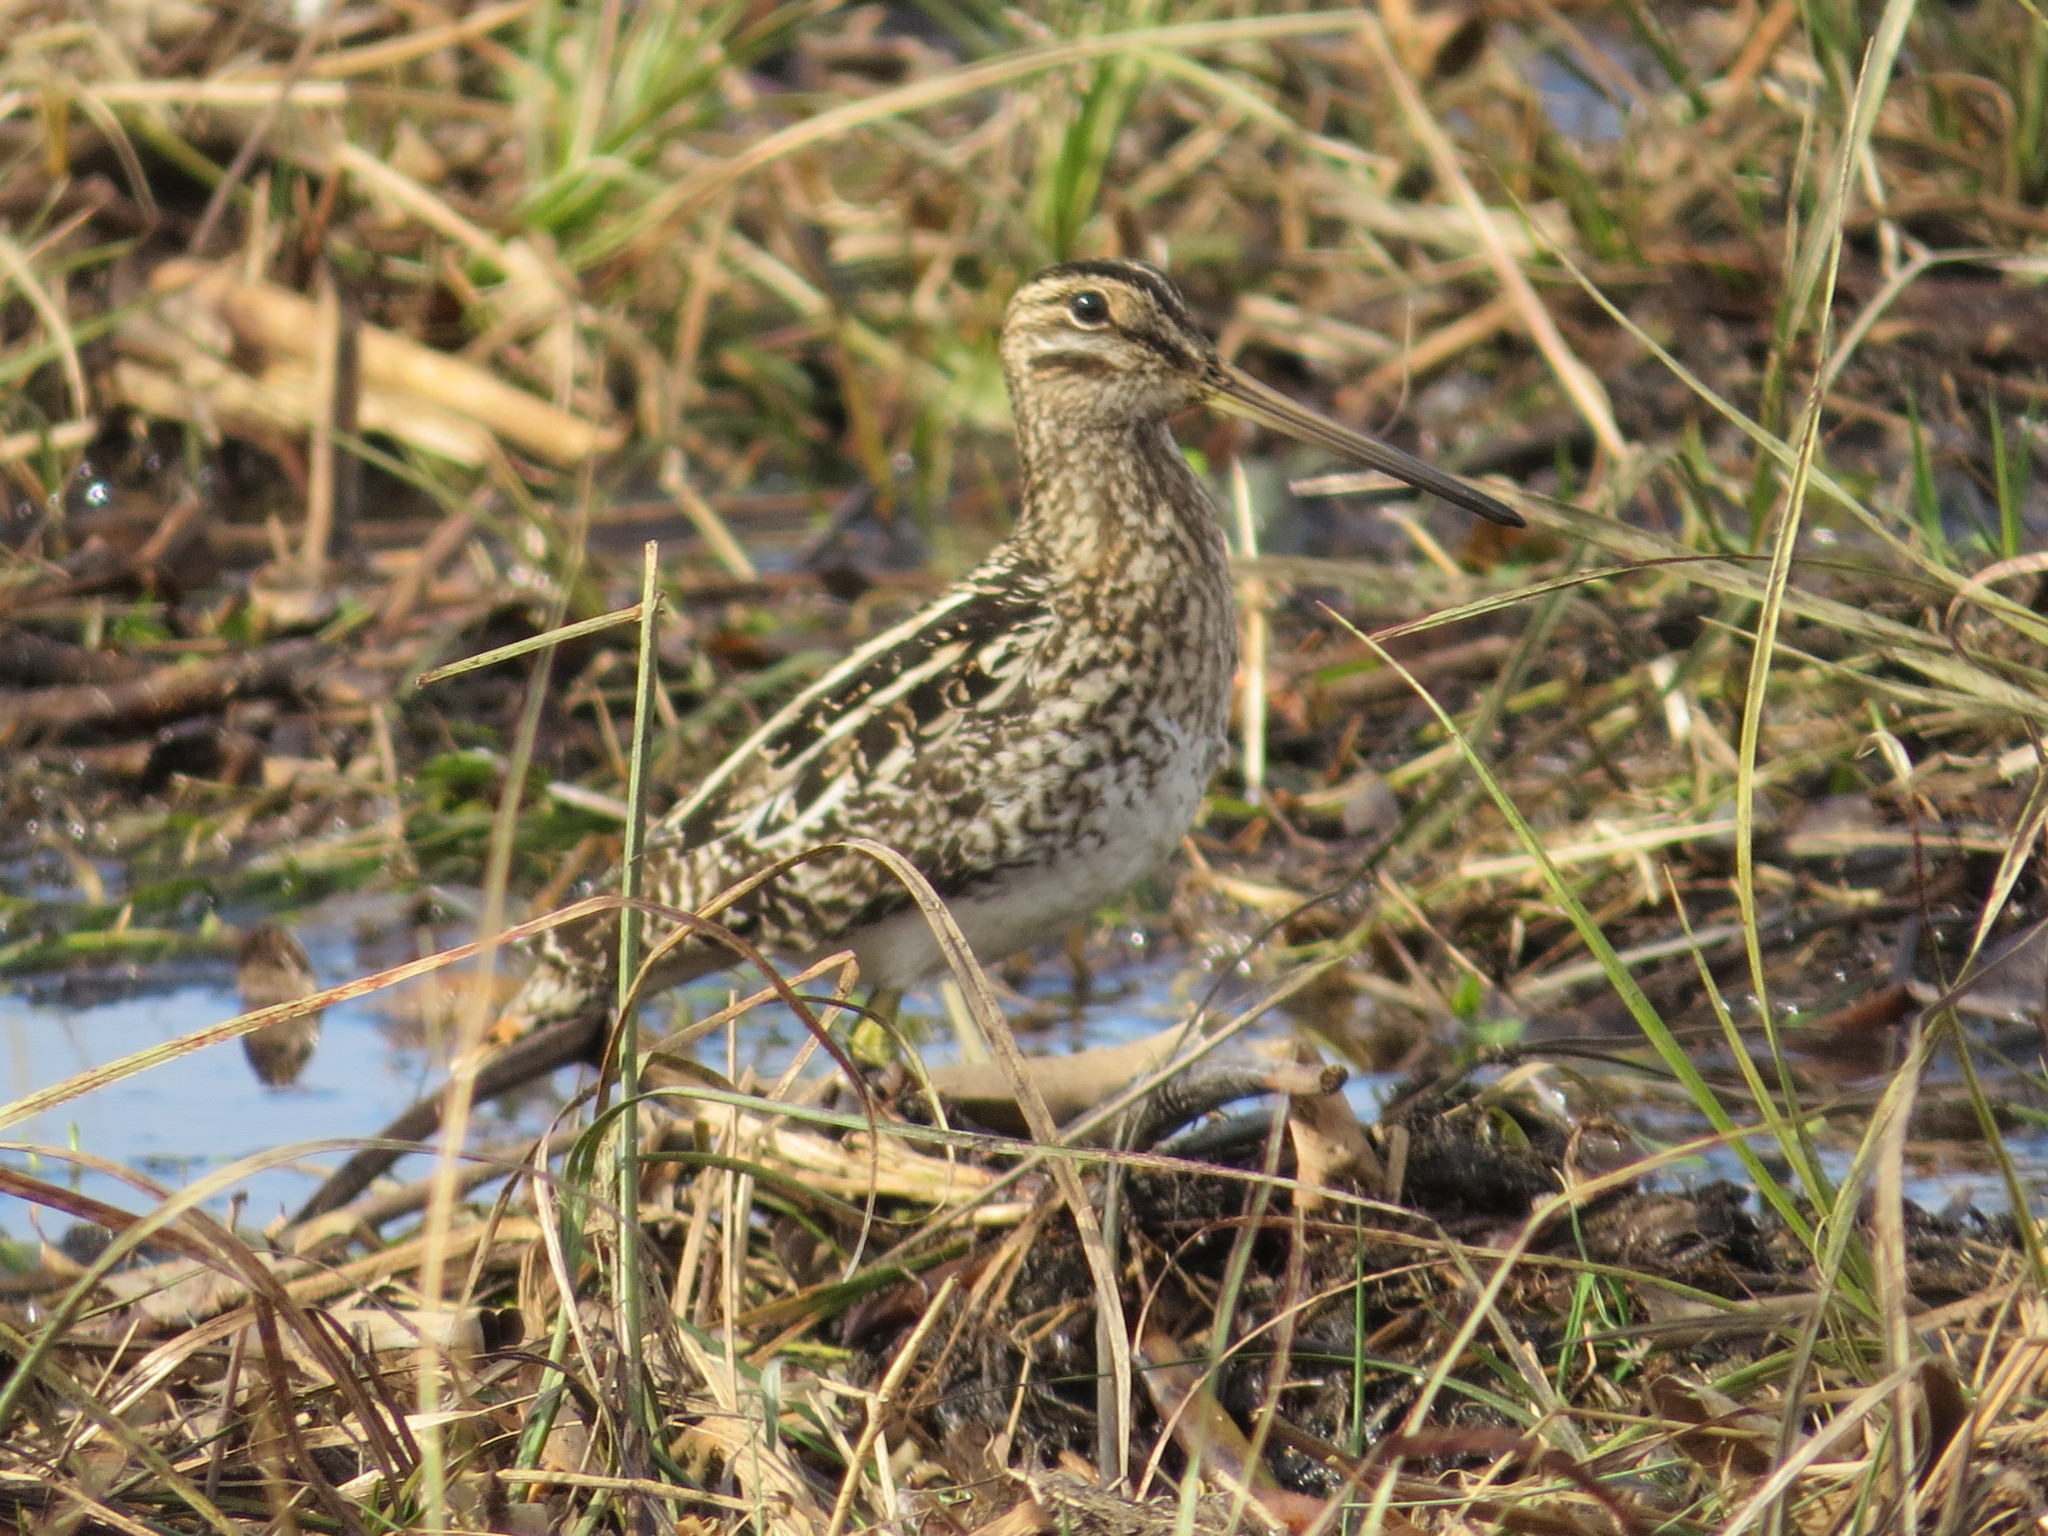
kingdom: Animalia
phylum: Chordata
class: Aves
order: Charadriiformes
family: Scolopacidae
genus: Gallinago
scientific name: Gallinago paraguaiae
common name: South american snipe
